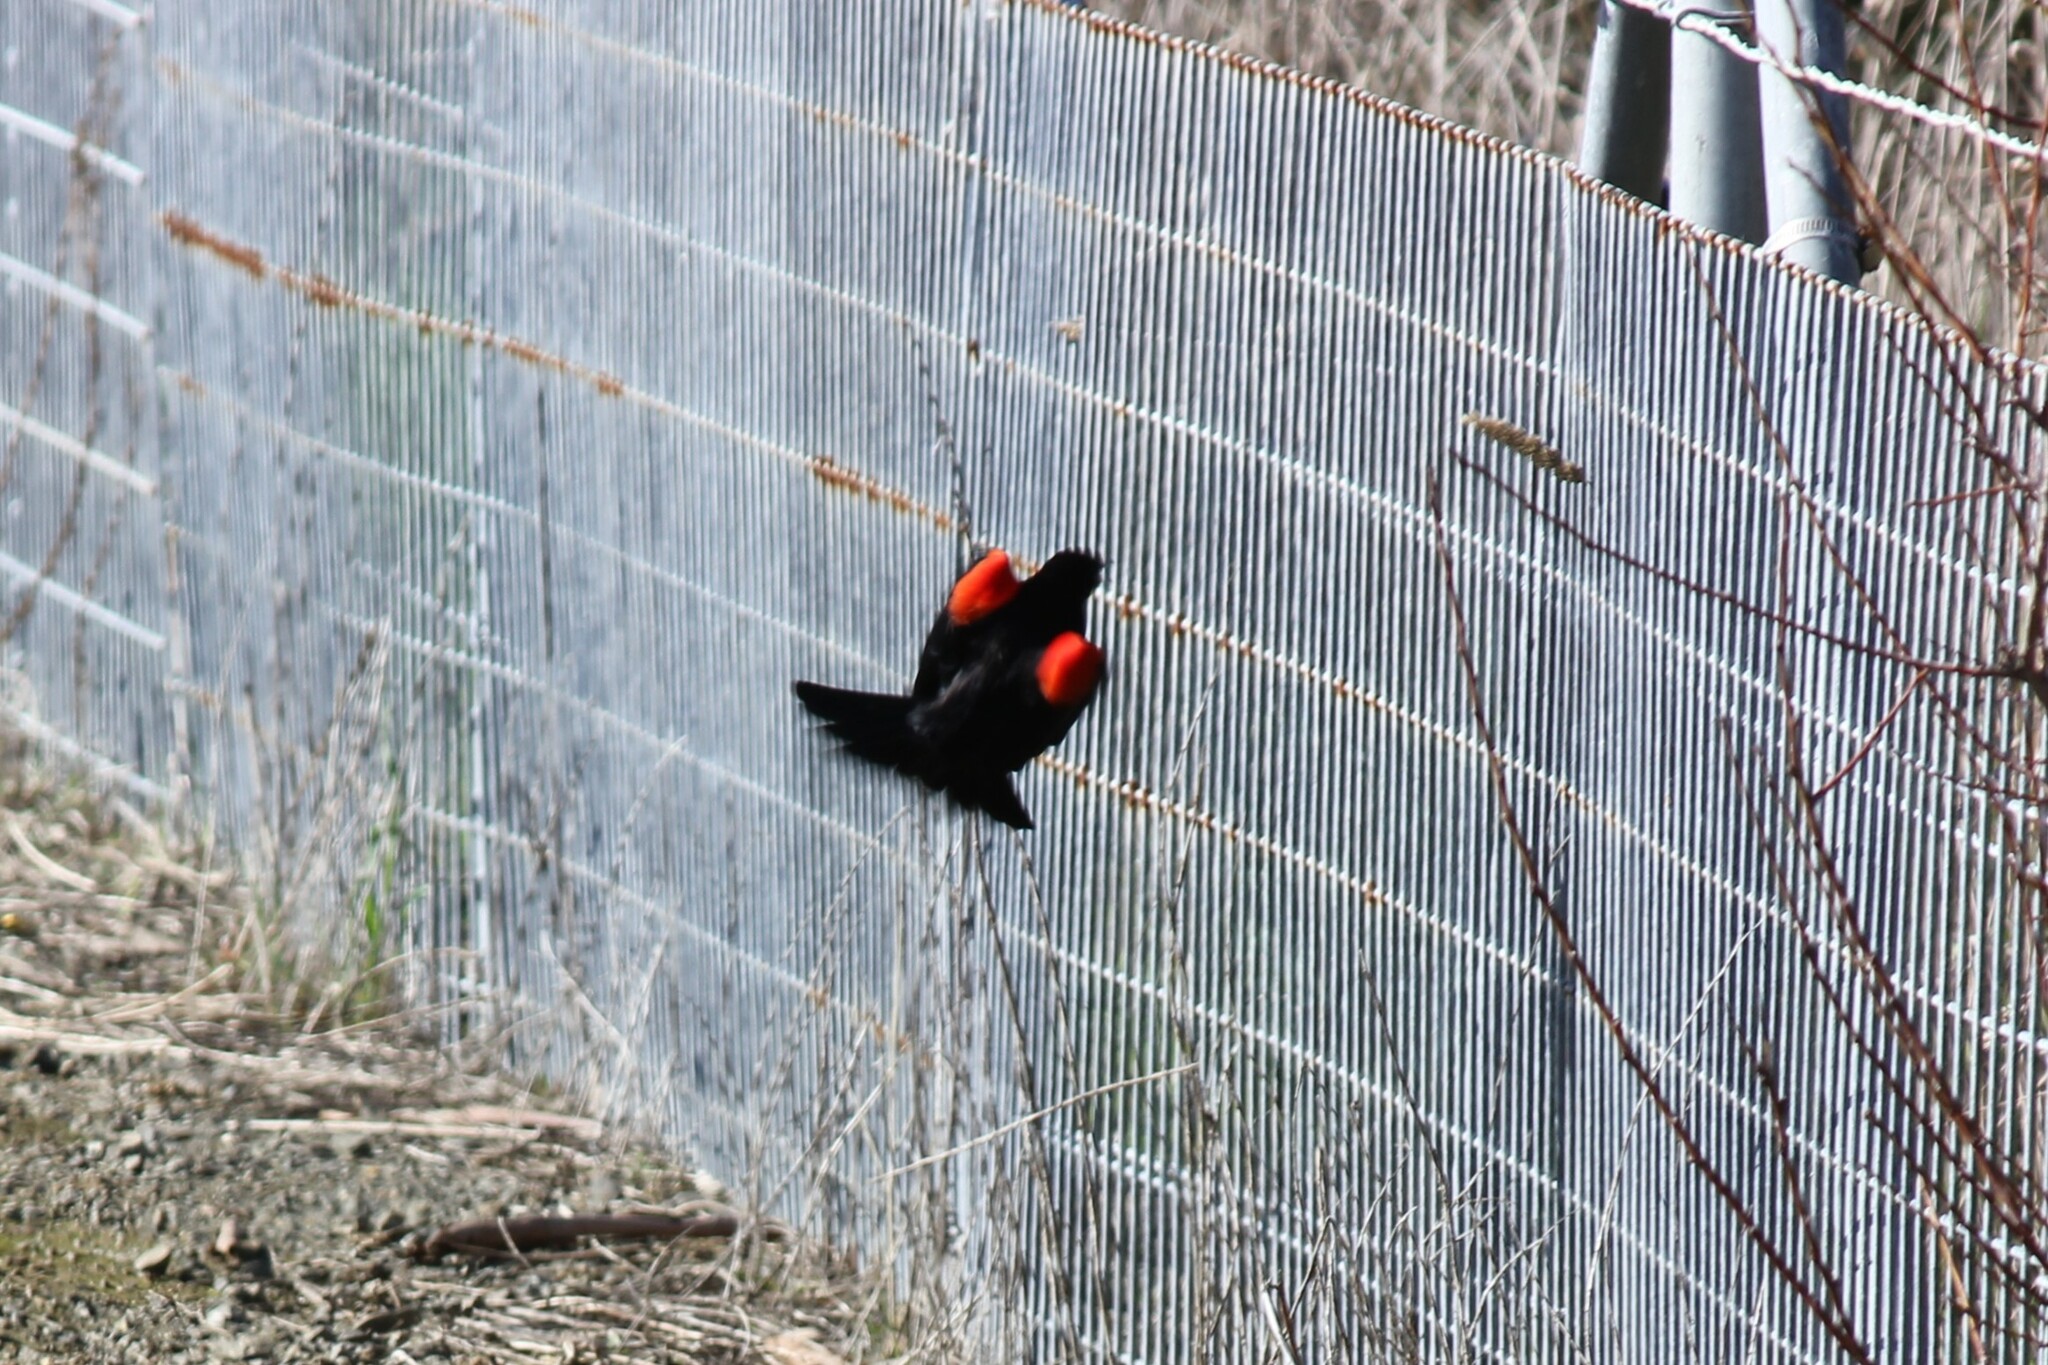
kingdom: Animalia
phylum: Chordata
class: Aves
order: Passeriformes
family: Icteridae
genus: Agelaius
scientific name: Agelaius phoeniceus
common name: Red-winged blackbird
